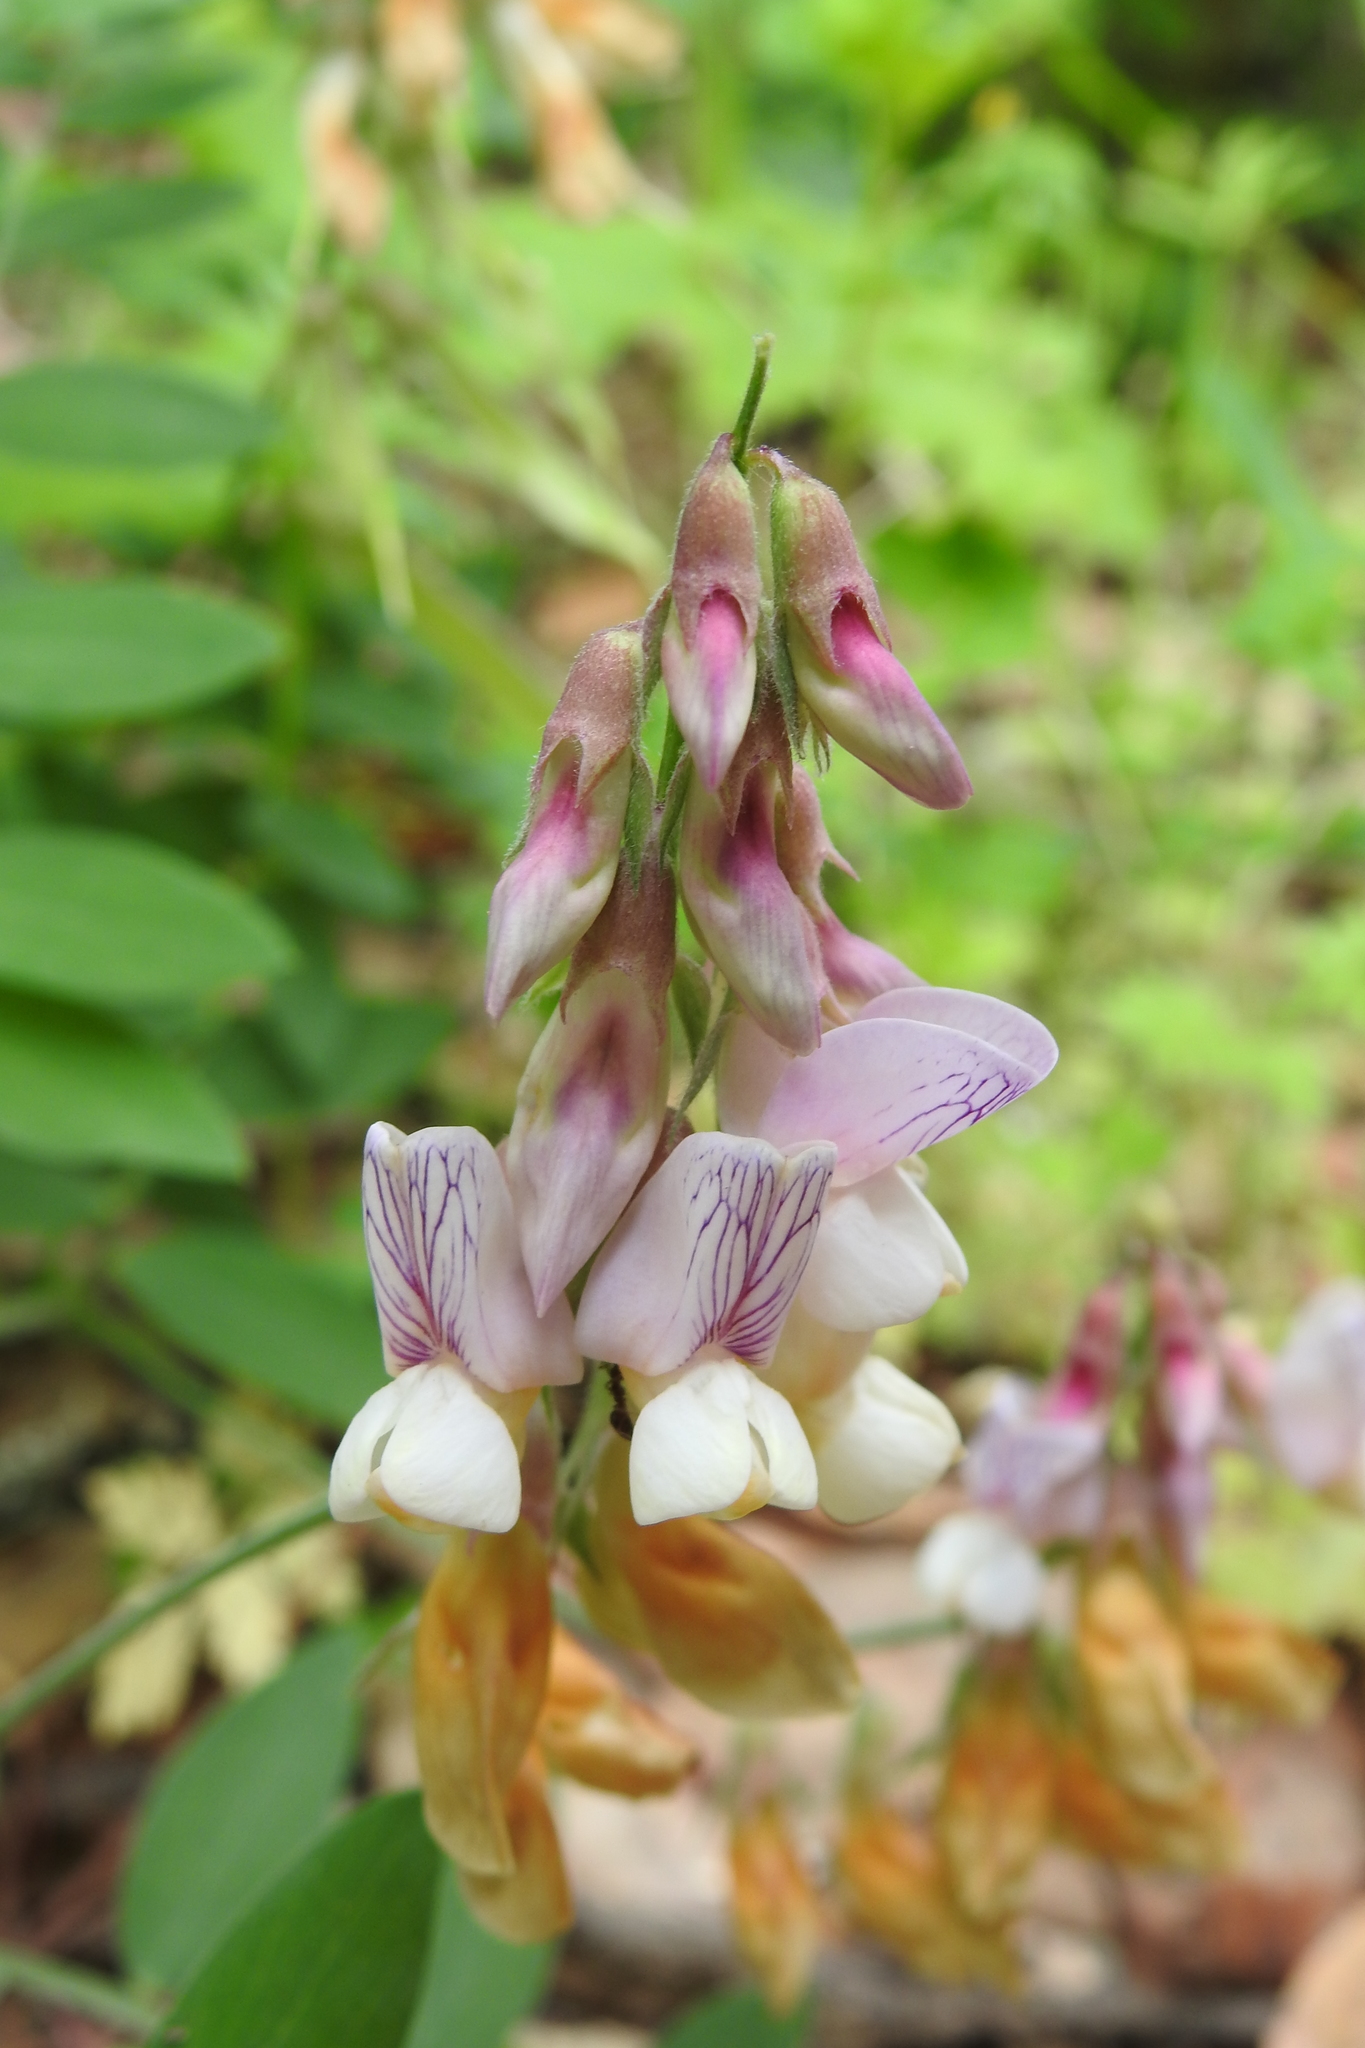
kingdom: Plantae
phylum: Tracheophyta
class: Magnoliopsida
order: Fabales
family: Fabaceae
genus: Lathyrus
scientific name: Lathyrus vestitus
